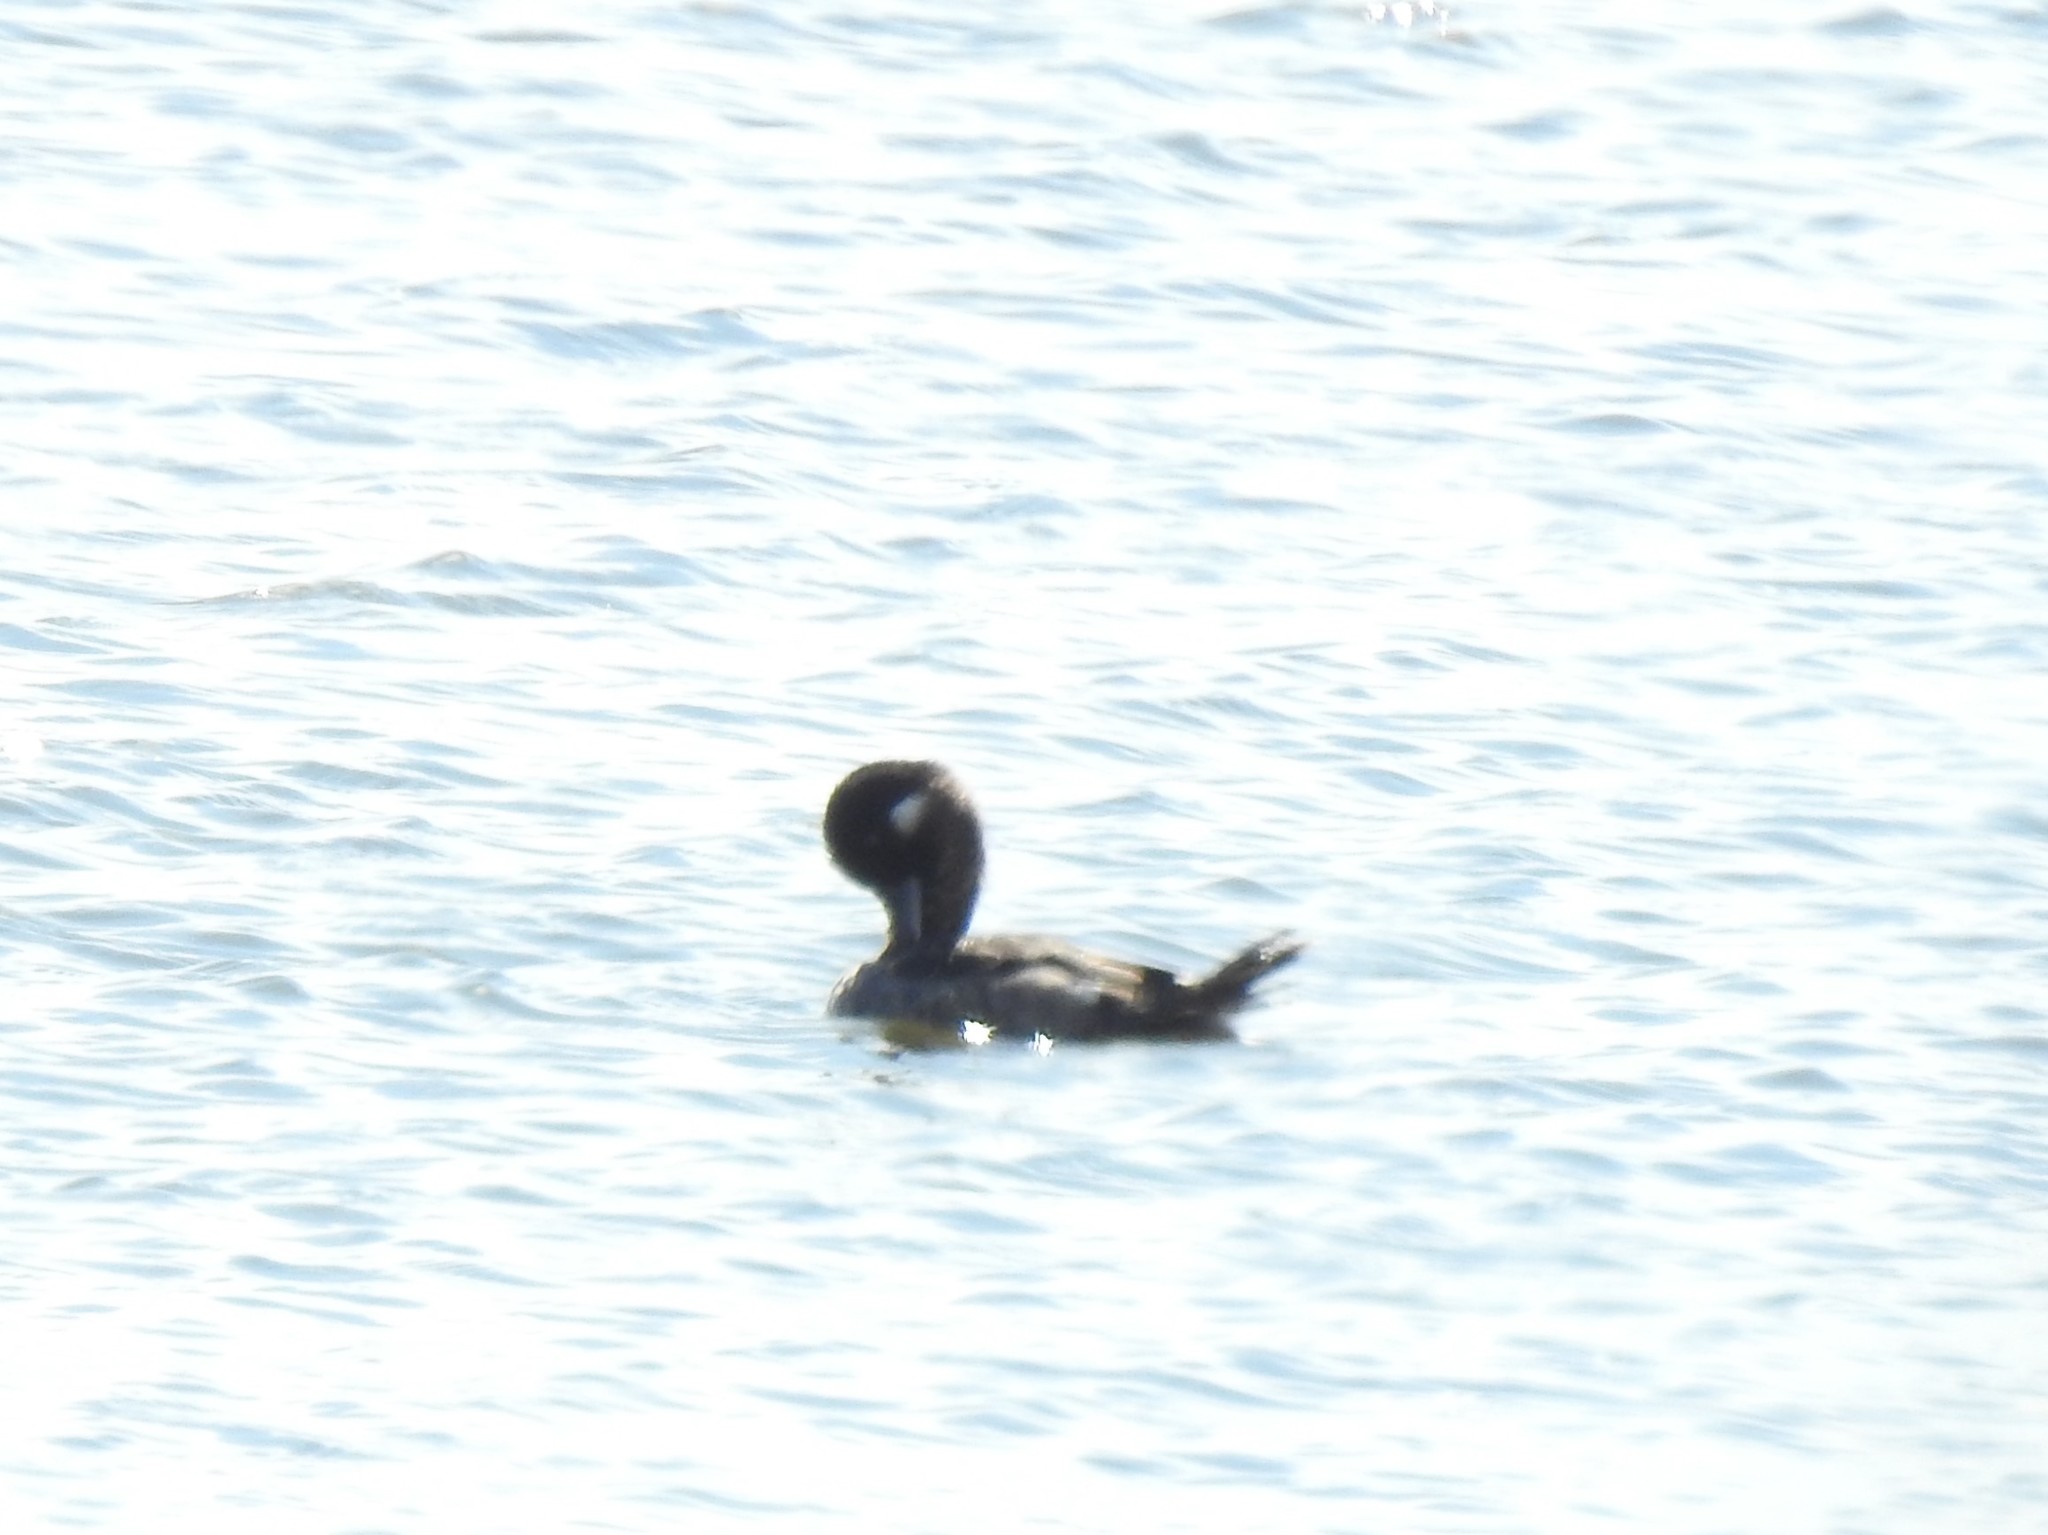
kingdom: Animalia
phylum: Chordata
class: Aves
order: Anseriformes
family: Anatidae
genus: Bucephala
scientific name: Bucephala albeola
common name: Bufflehead
